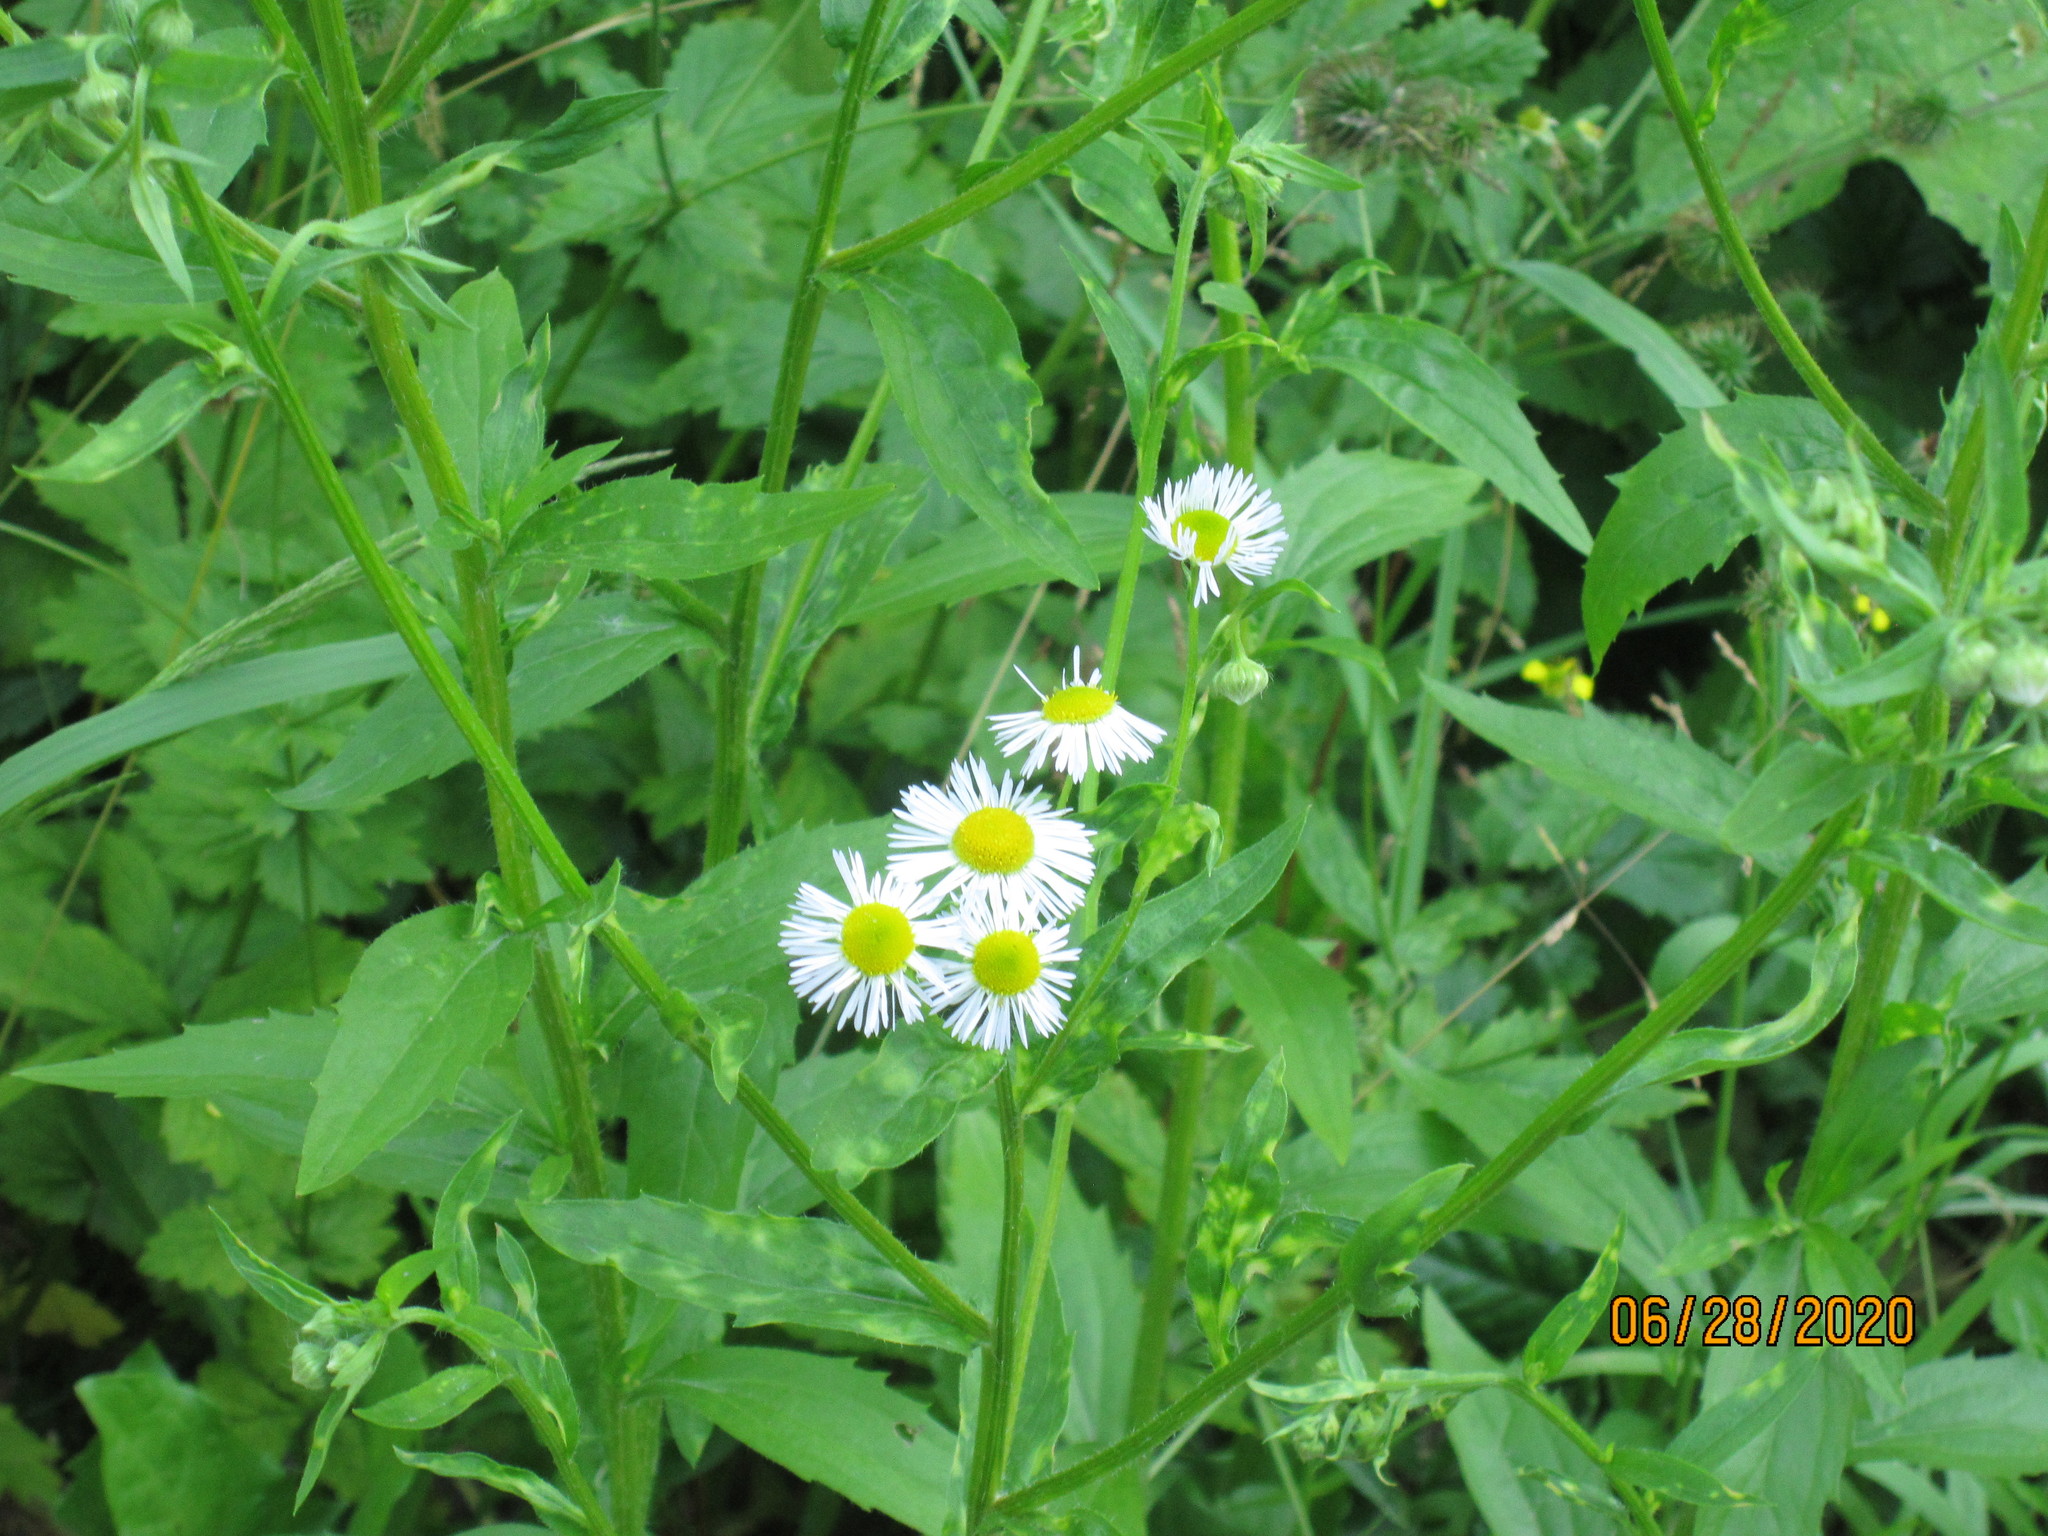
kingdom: Plantae
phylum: Tracheophyta
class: Magnoliopsida
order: Asterales
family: Asteraceae
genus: Erigeron
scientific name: Erigeron annuus
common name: Tall fleabane
